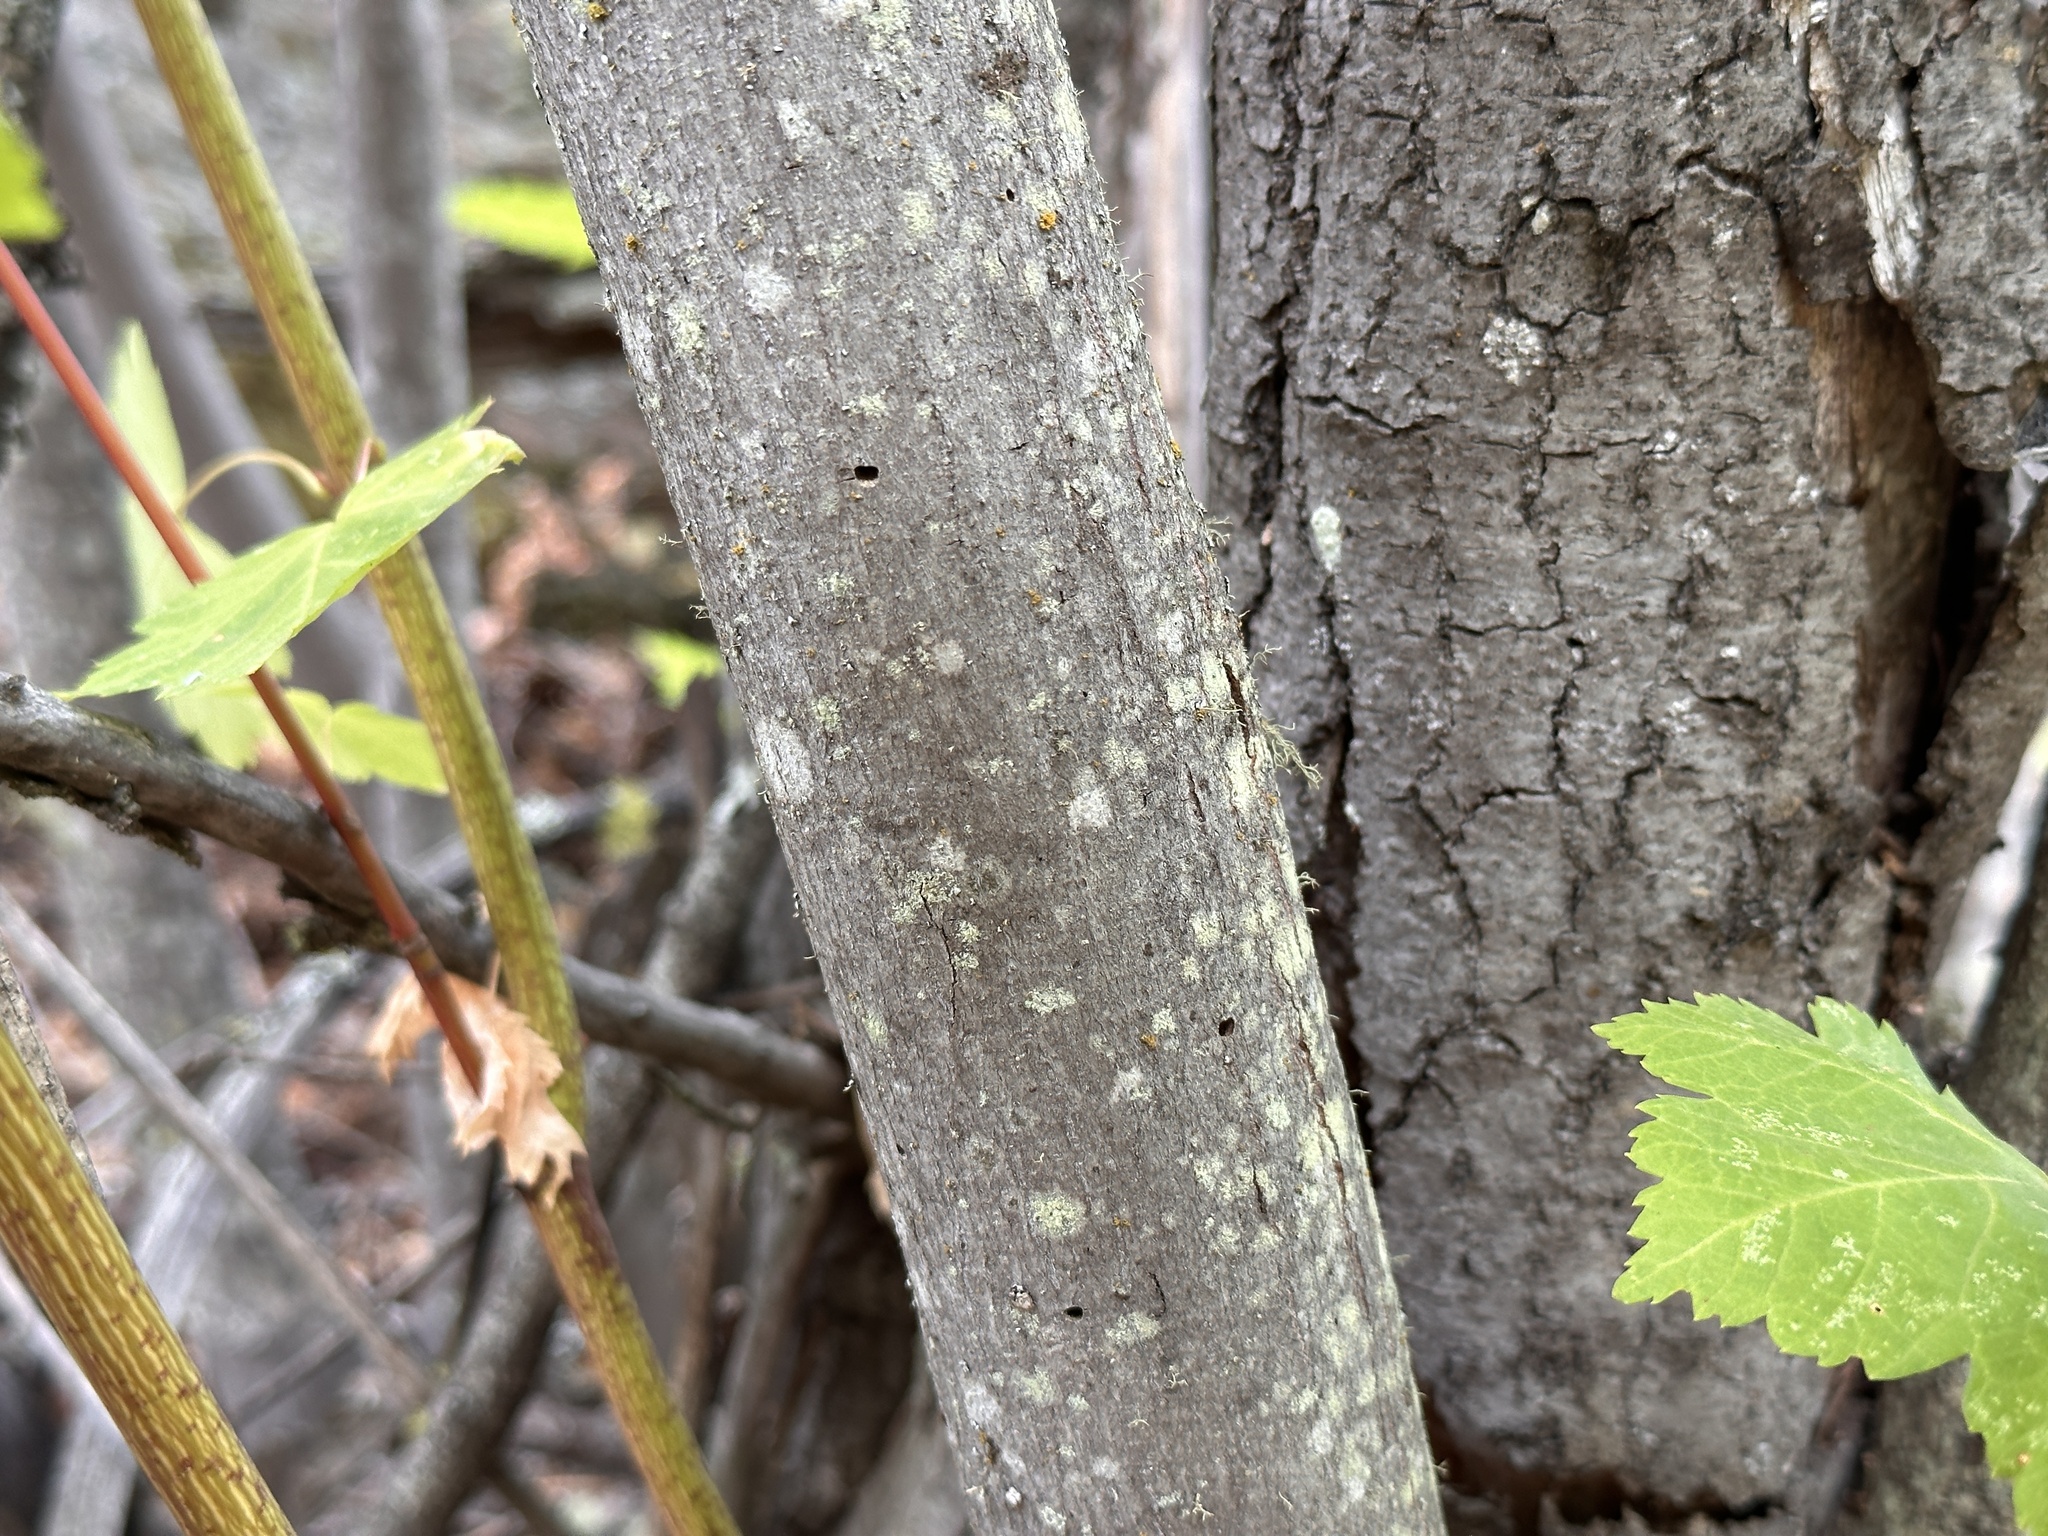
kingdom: Plantae
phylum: Tracheophyta
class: Magnoliopsida
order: Sapindales
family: Sapindaceae
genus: Acer
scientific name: Acer glabrum
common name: Rocky mountain maple
